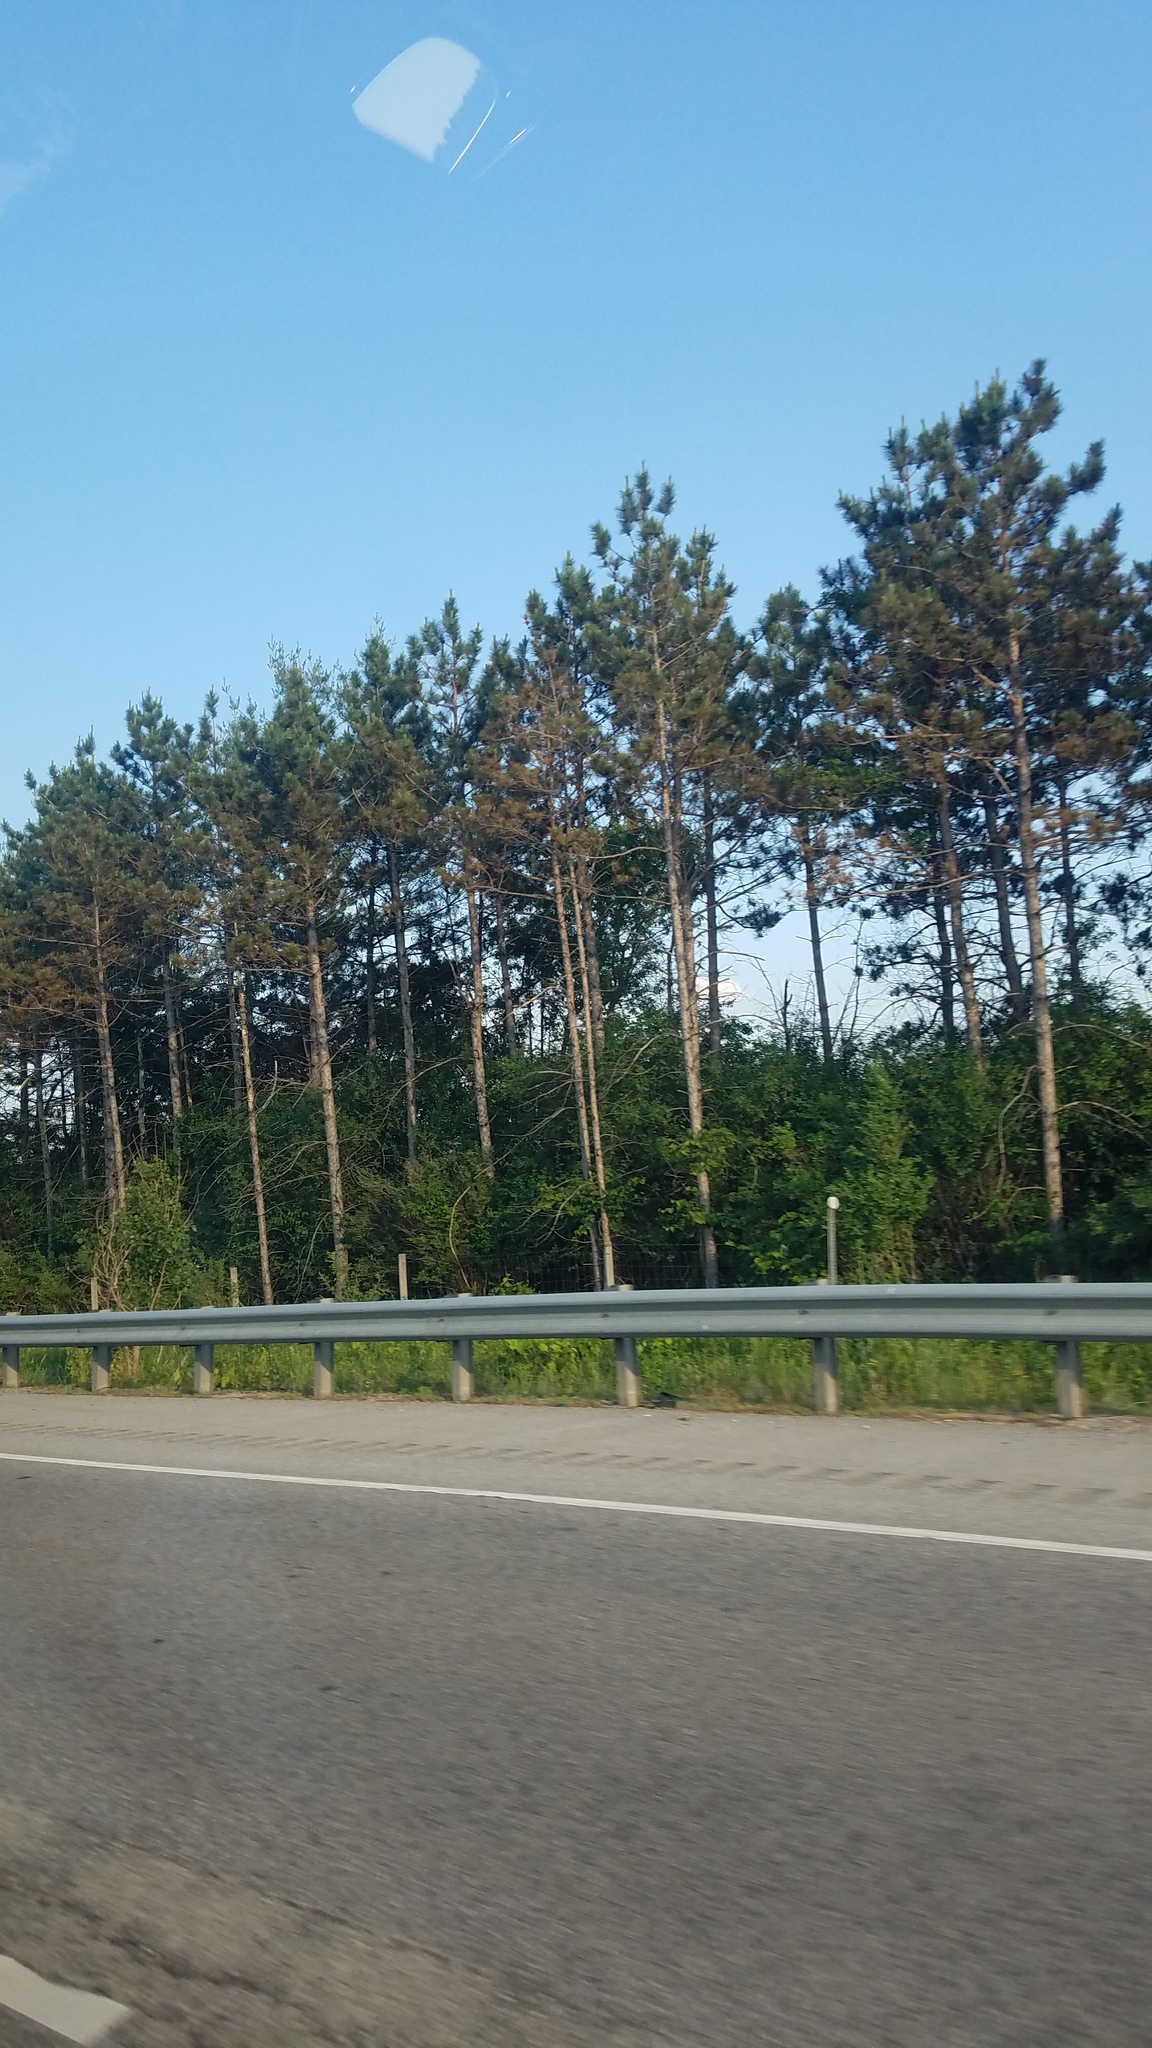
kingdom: Plantae
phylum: Tracheophyta
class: Pinopsida
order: Pinales
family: Pinaceae
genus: Pinus
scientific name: Pinus resinosa
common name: Norway pine
